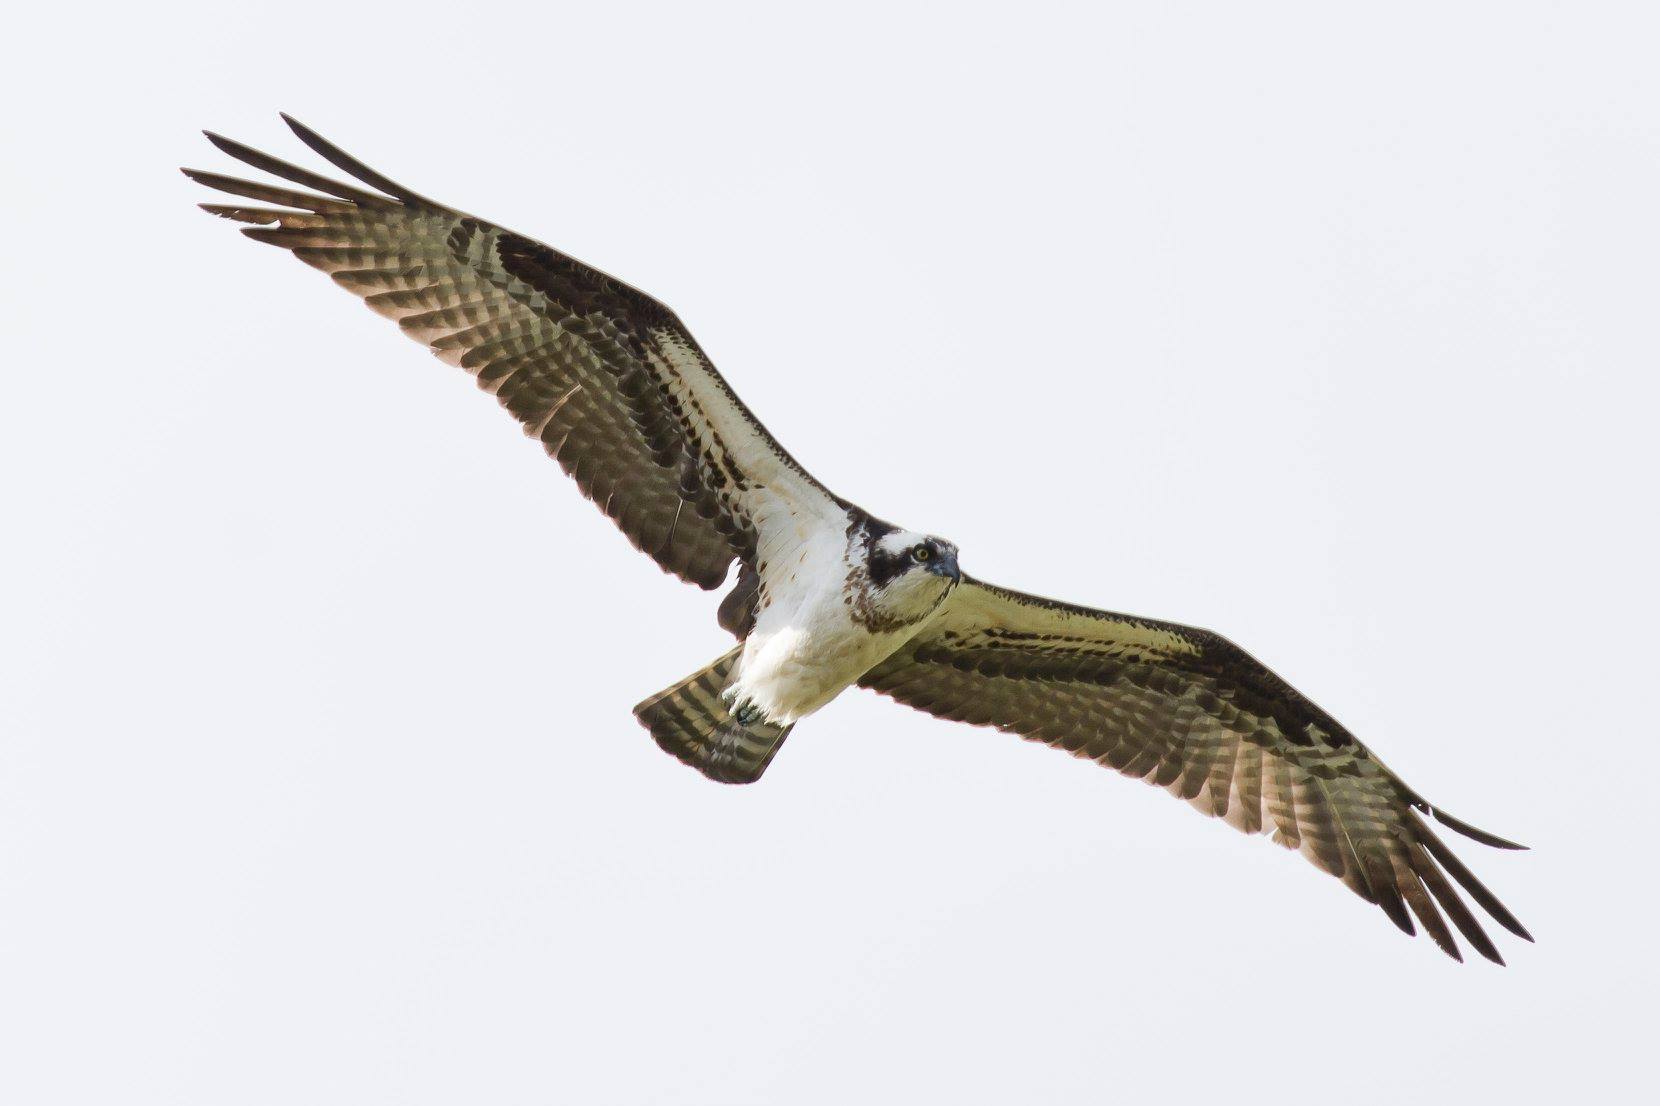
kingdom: Animalia
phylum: Chordata
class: Aves
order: Accipitriformes
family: Pandionidae
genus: Pandion
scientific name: Pandion haliaetus
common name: Osprey
